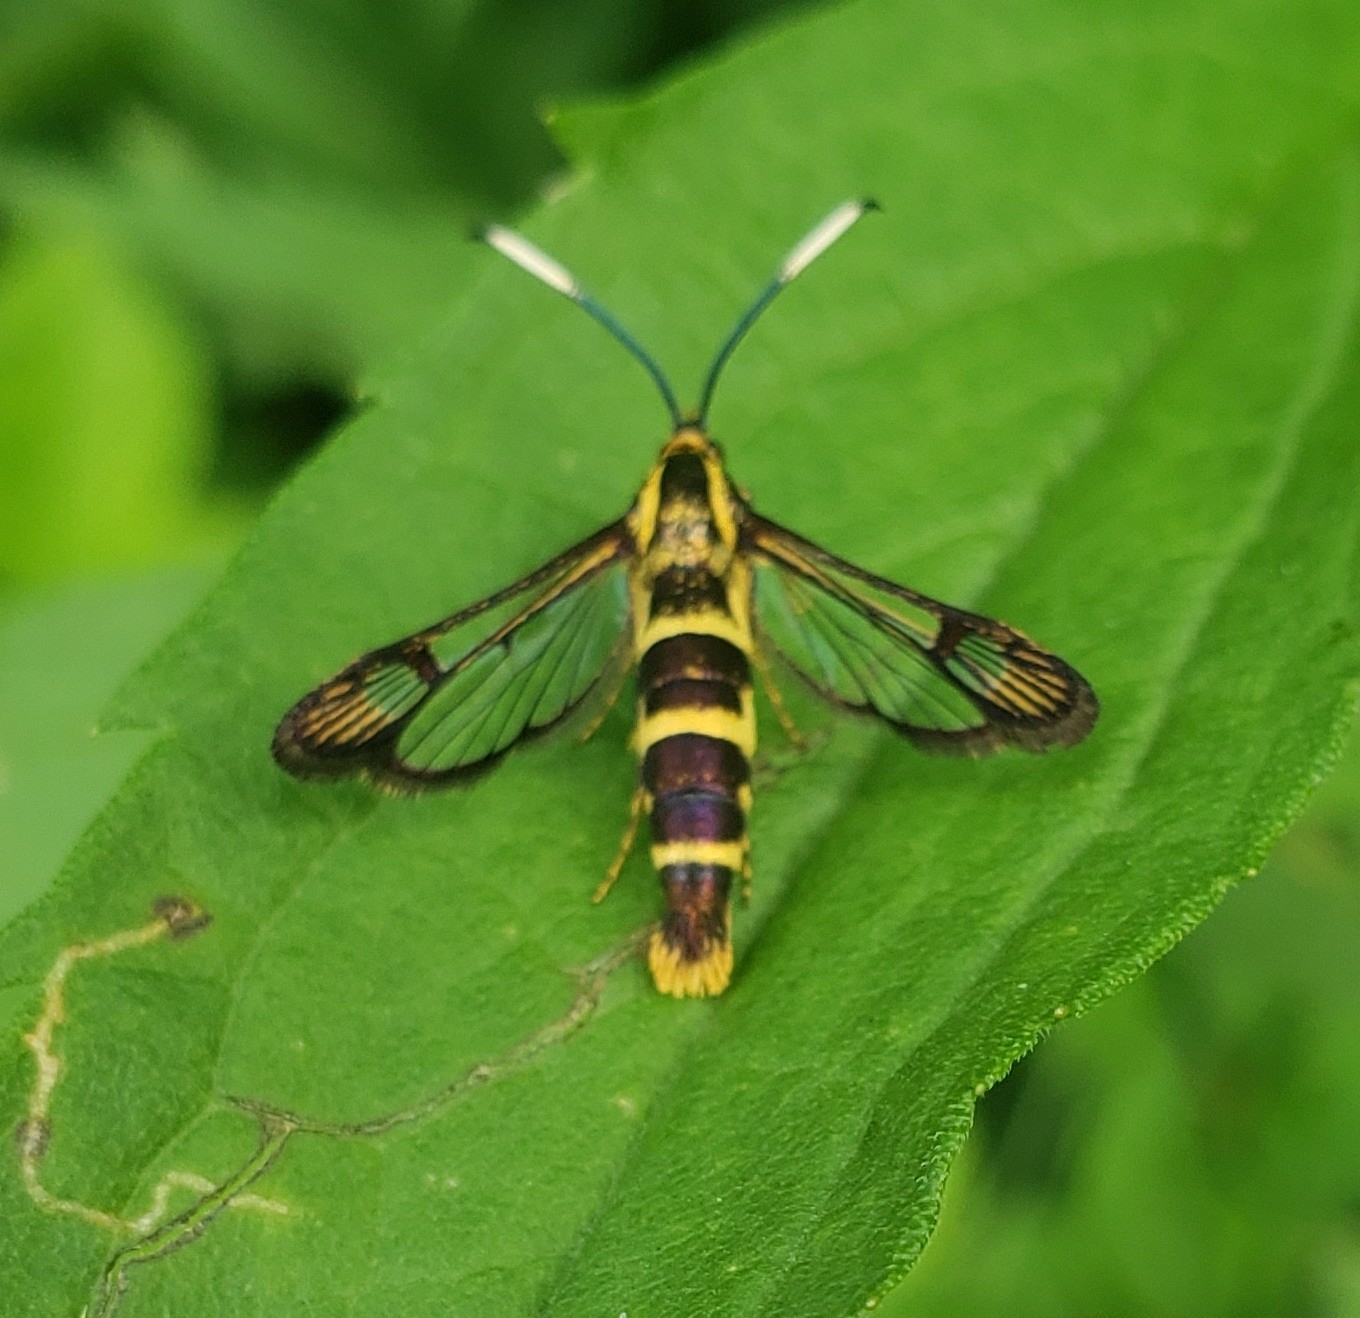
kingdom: Animalia
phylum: Arthropoda
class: Insecta
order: Lepidoptera
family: Sesiidae
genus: Carmenta
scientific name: Carmenta bassiformis
